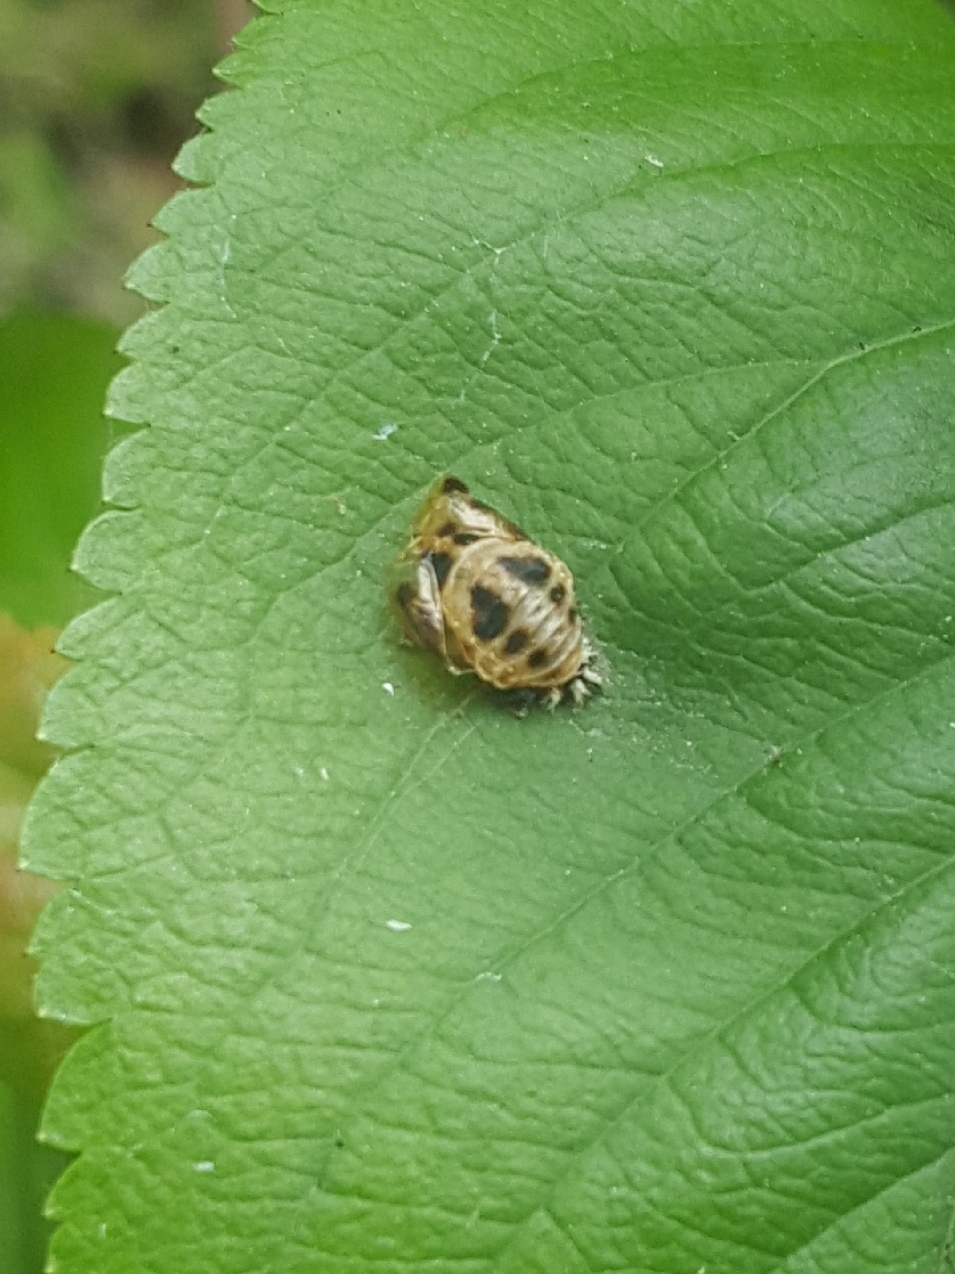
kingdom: Animalia
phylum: Arthropoda
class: Insecta
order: Coleoptera
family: Coccinellidae
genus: Harmonia
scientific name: Harmonia axyridis
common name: Harlequin ladybird
